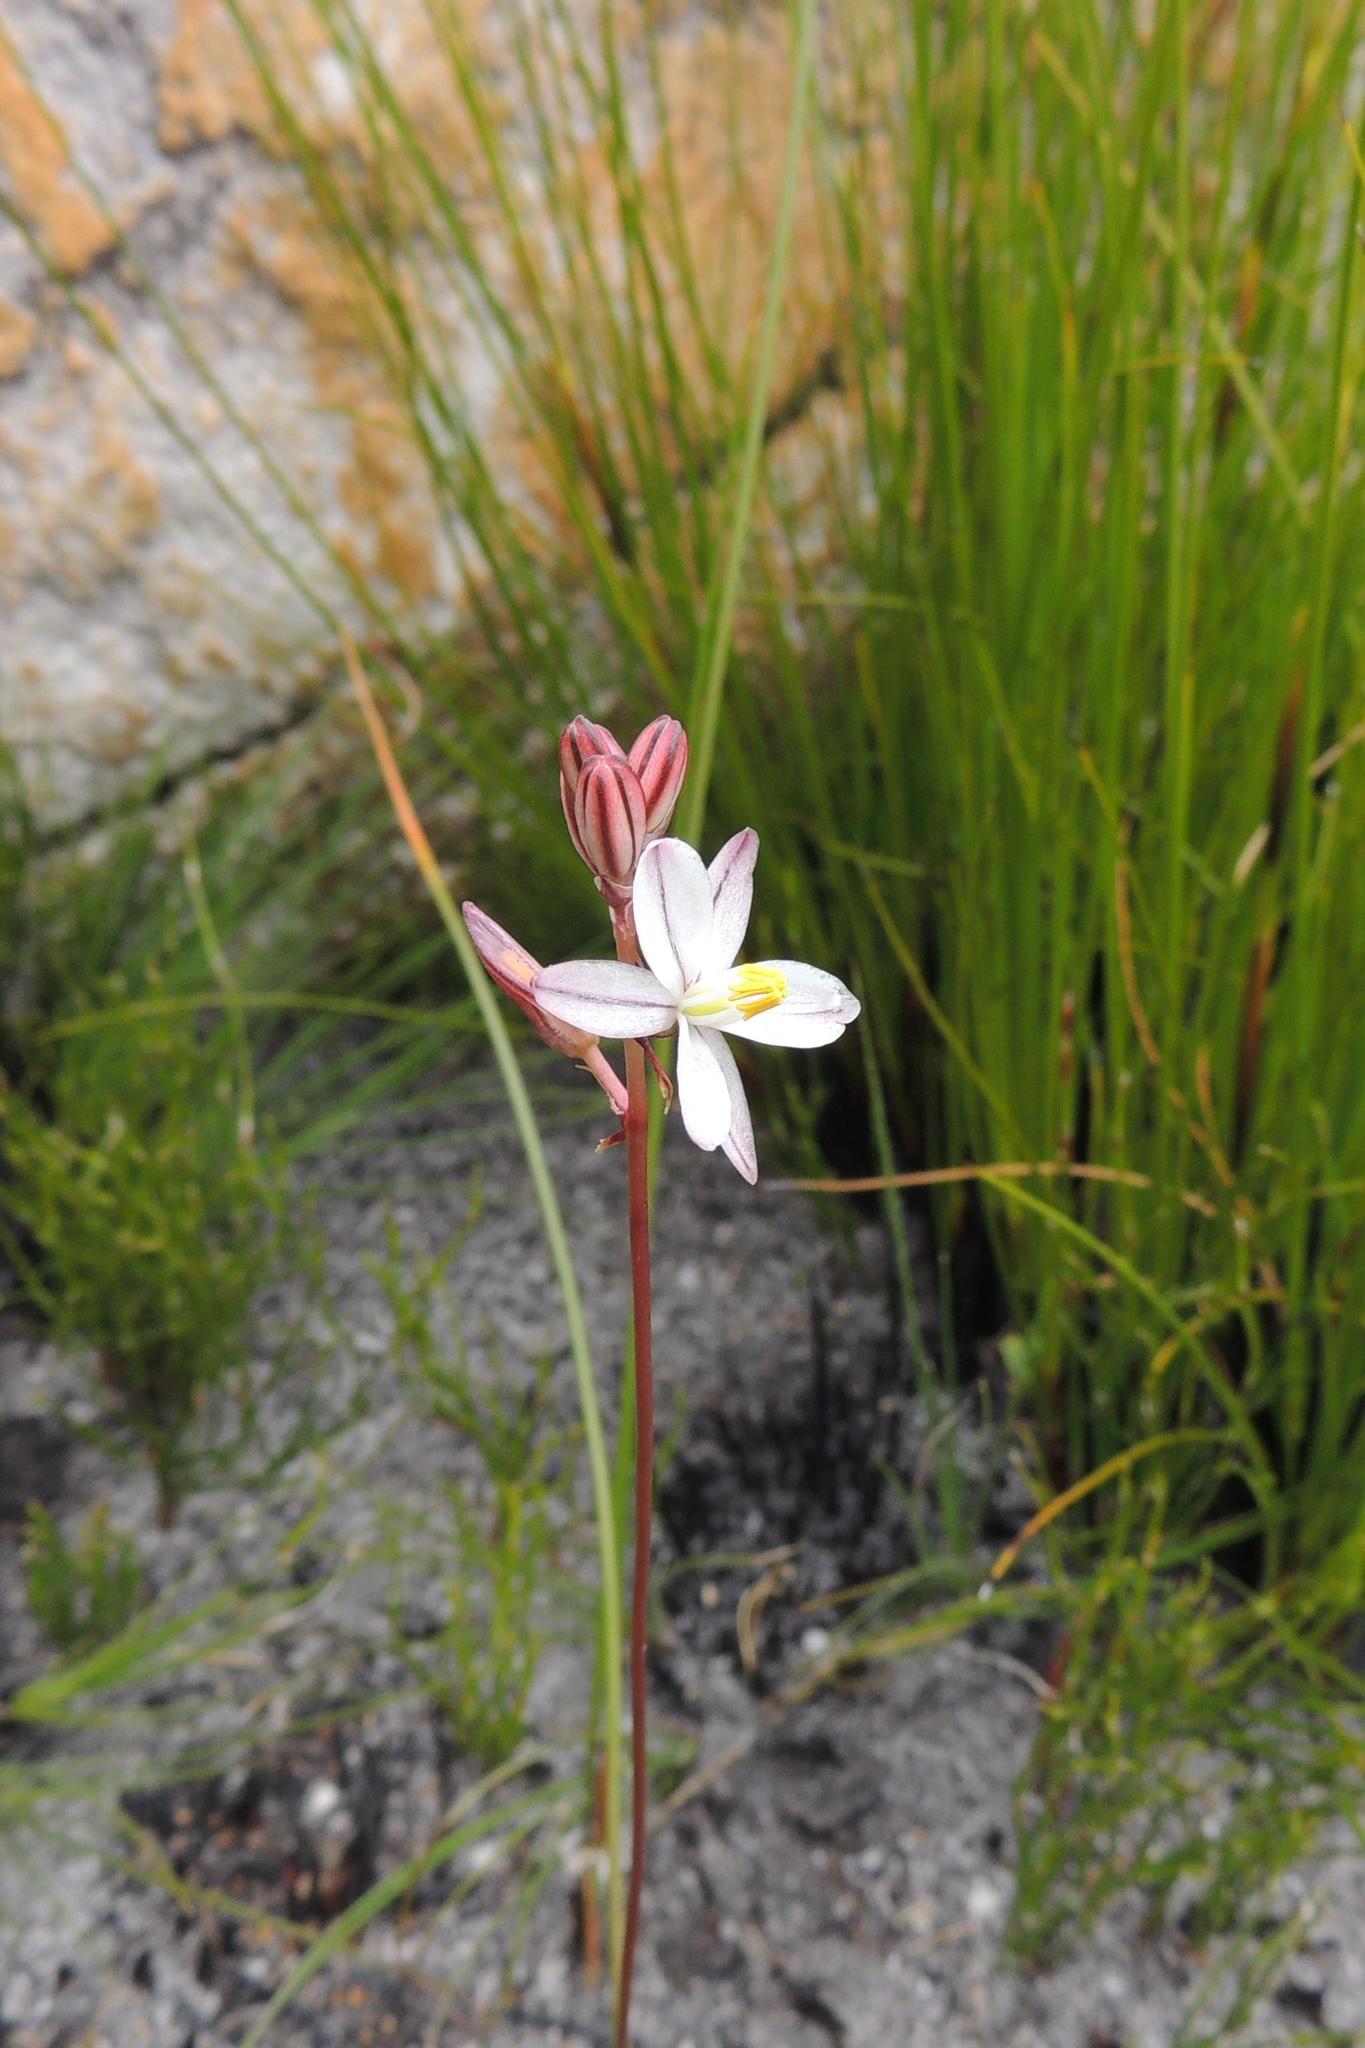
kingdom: Plantae
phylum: Tracheophyta
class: Liliopsida
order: Asparagales
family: Asparagaceae
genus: Drimia
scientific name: Drimia exuviata
